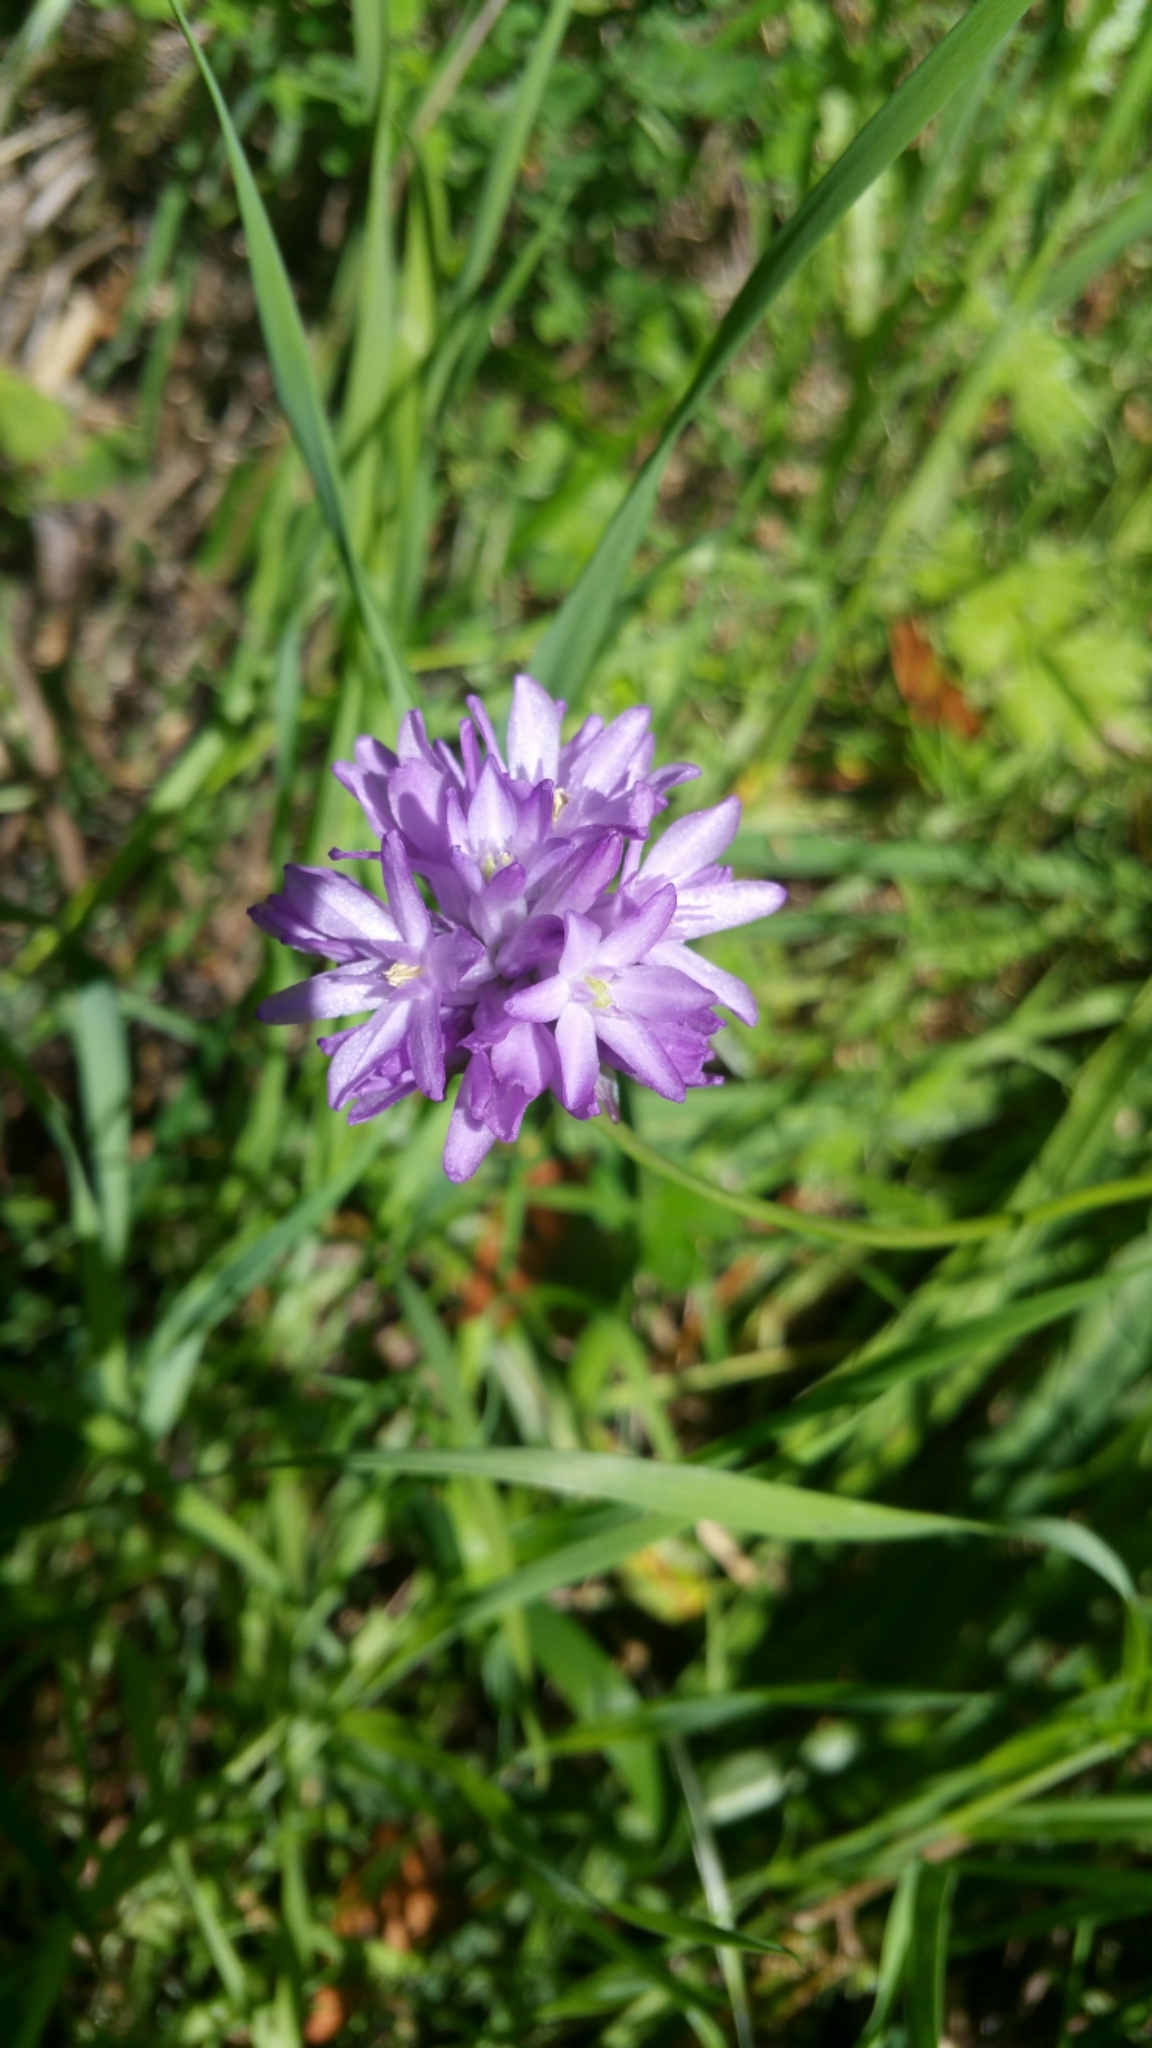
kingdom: Plantae
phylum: Tracheophyta
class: Liliopsida
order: Asparagales
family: Asparagaceae
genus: Dichelostemma
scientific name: Dichelostemma congestum
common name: Fork-tooth ookow
